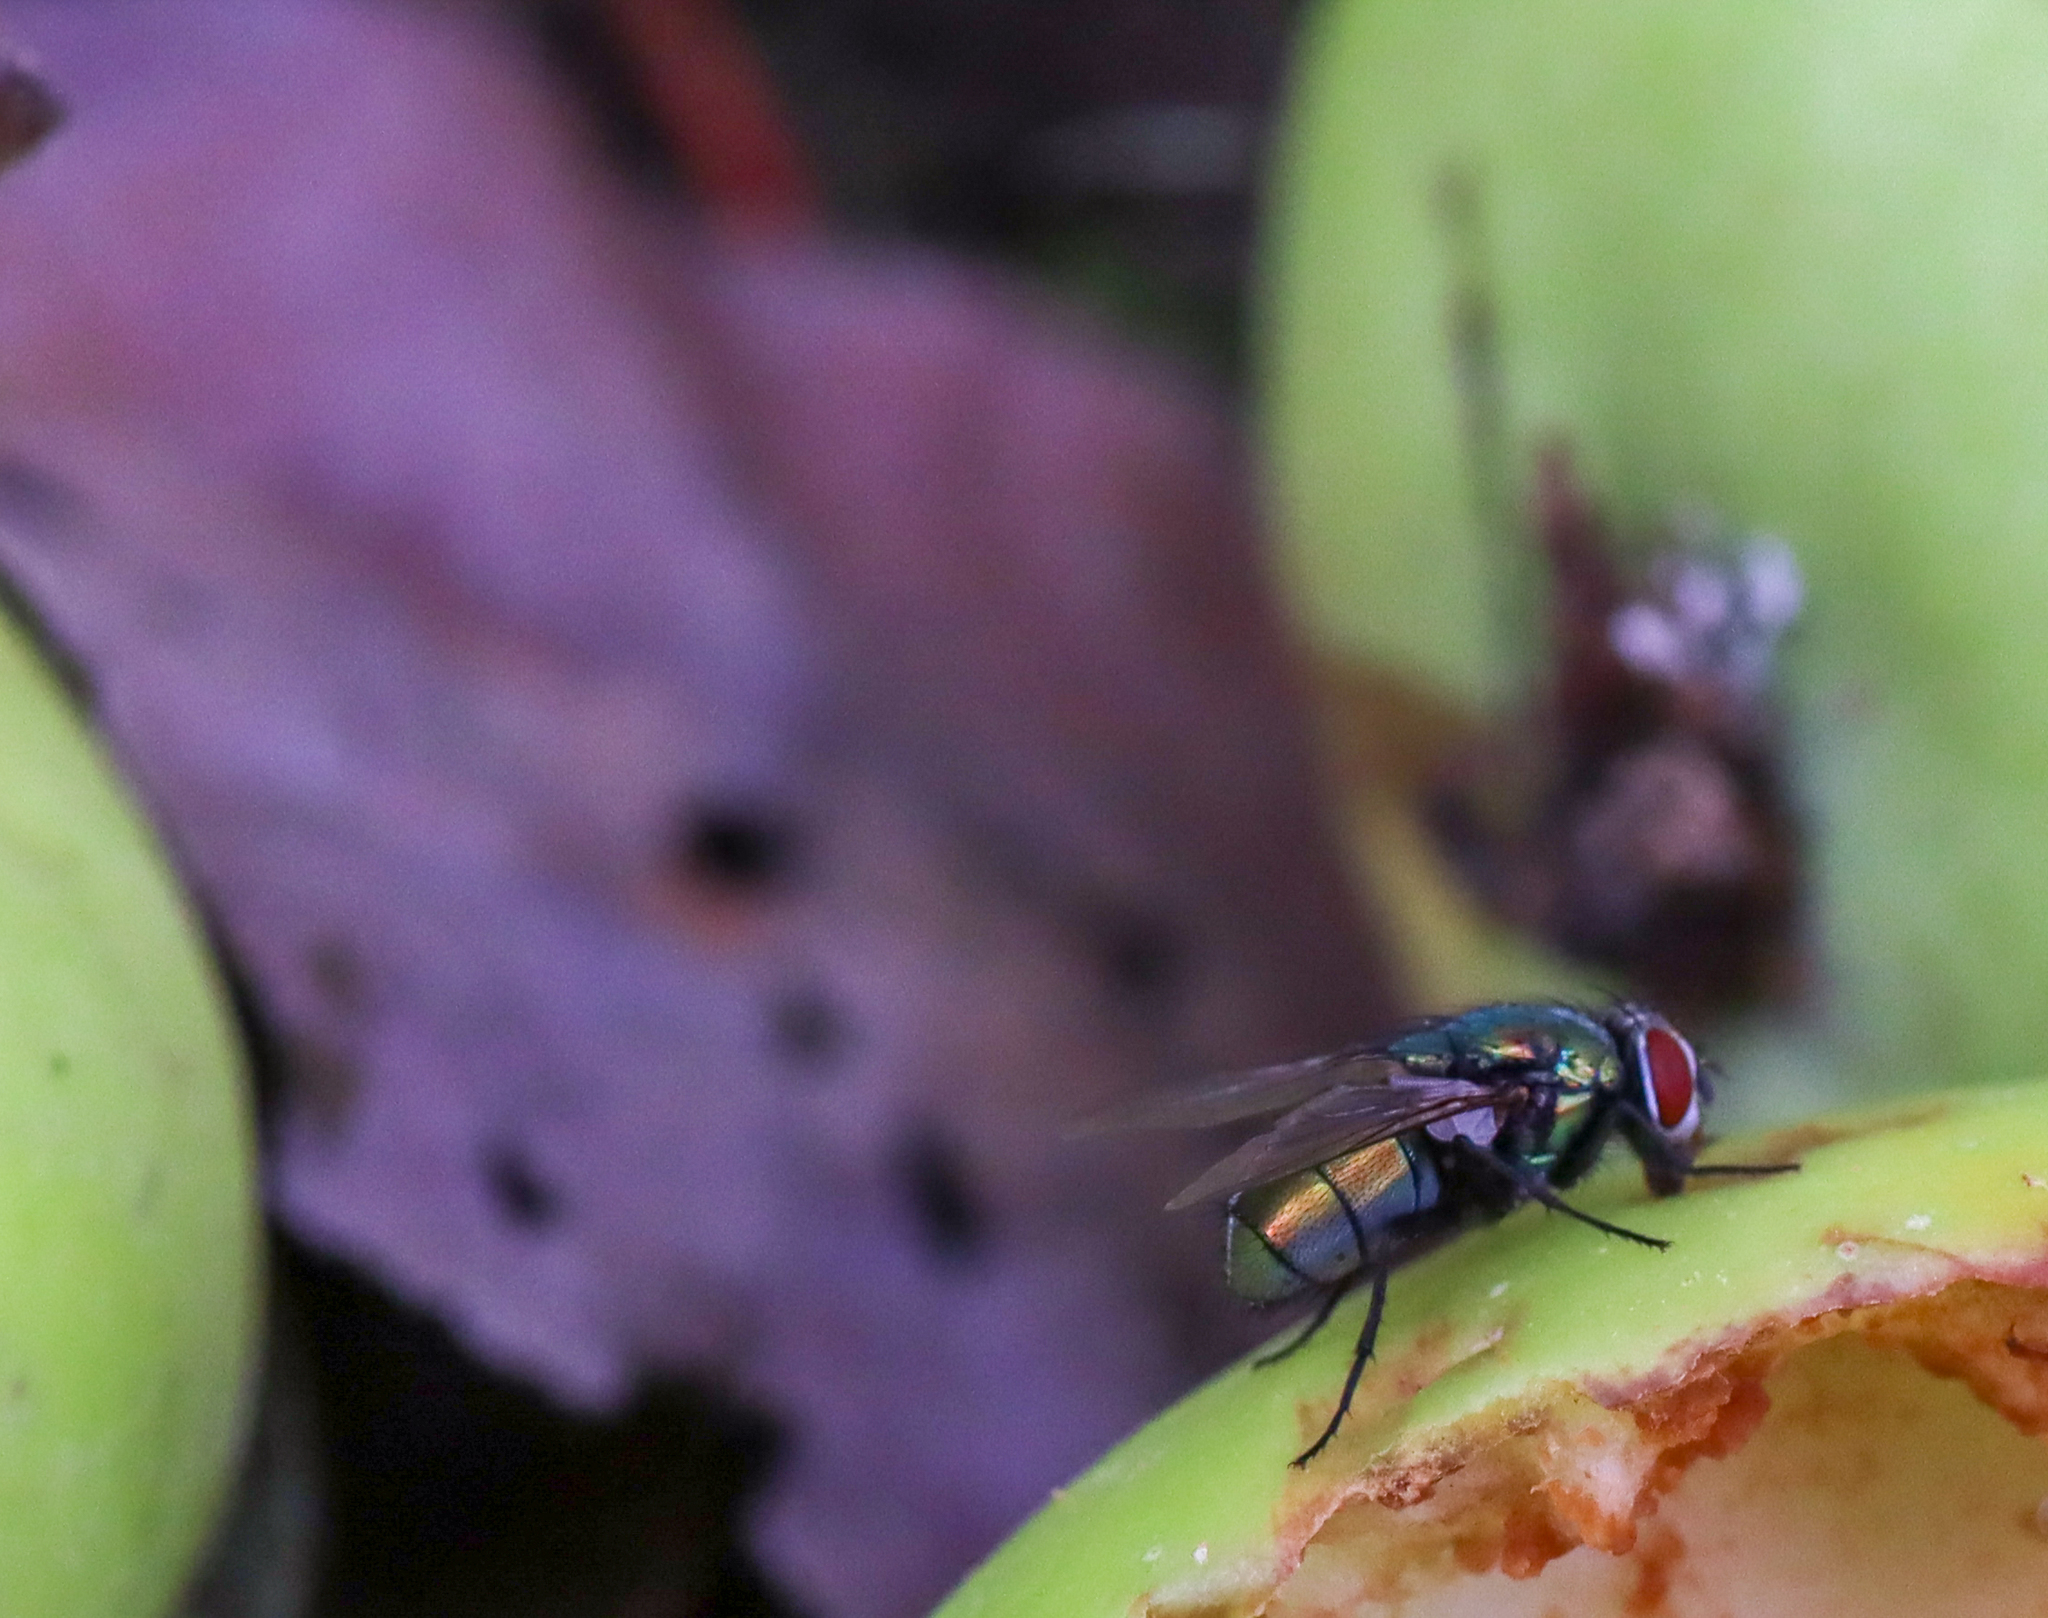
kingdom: Animalia
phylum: Arthropoda
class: Insecta
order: Diptera
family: Calliphoridae
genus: Lucilia
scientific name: Lucilia sericata
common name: Blow fly
